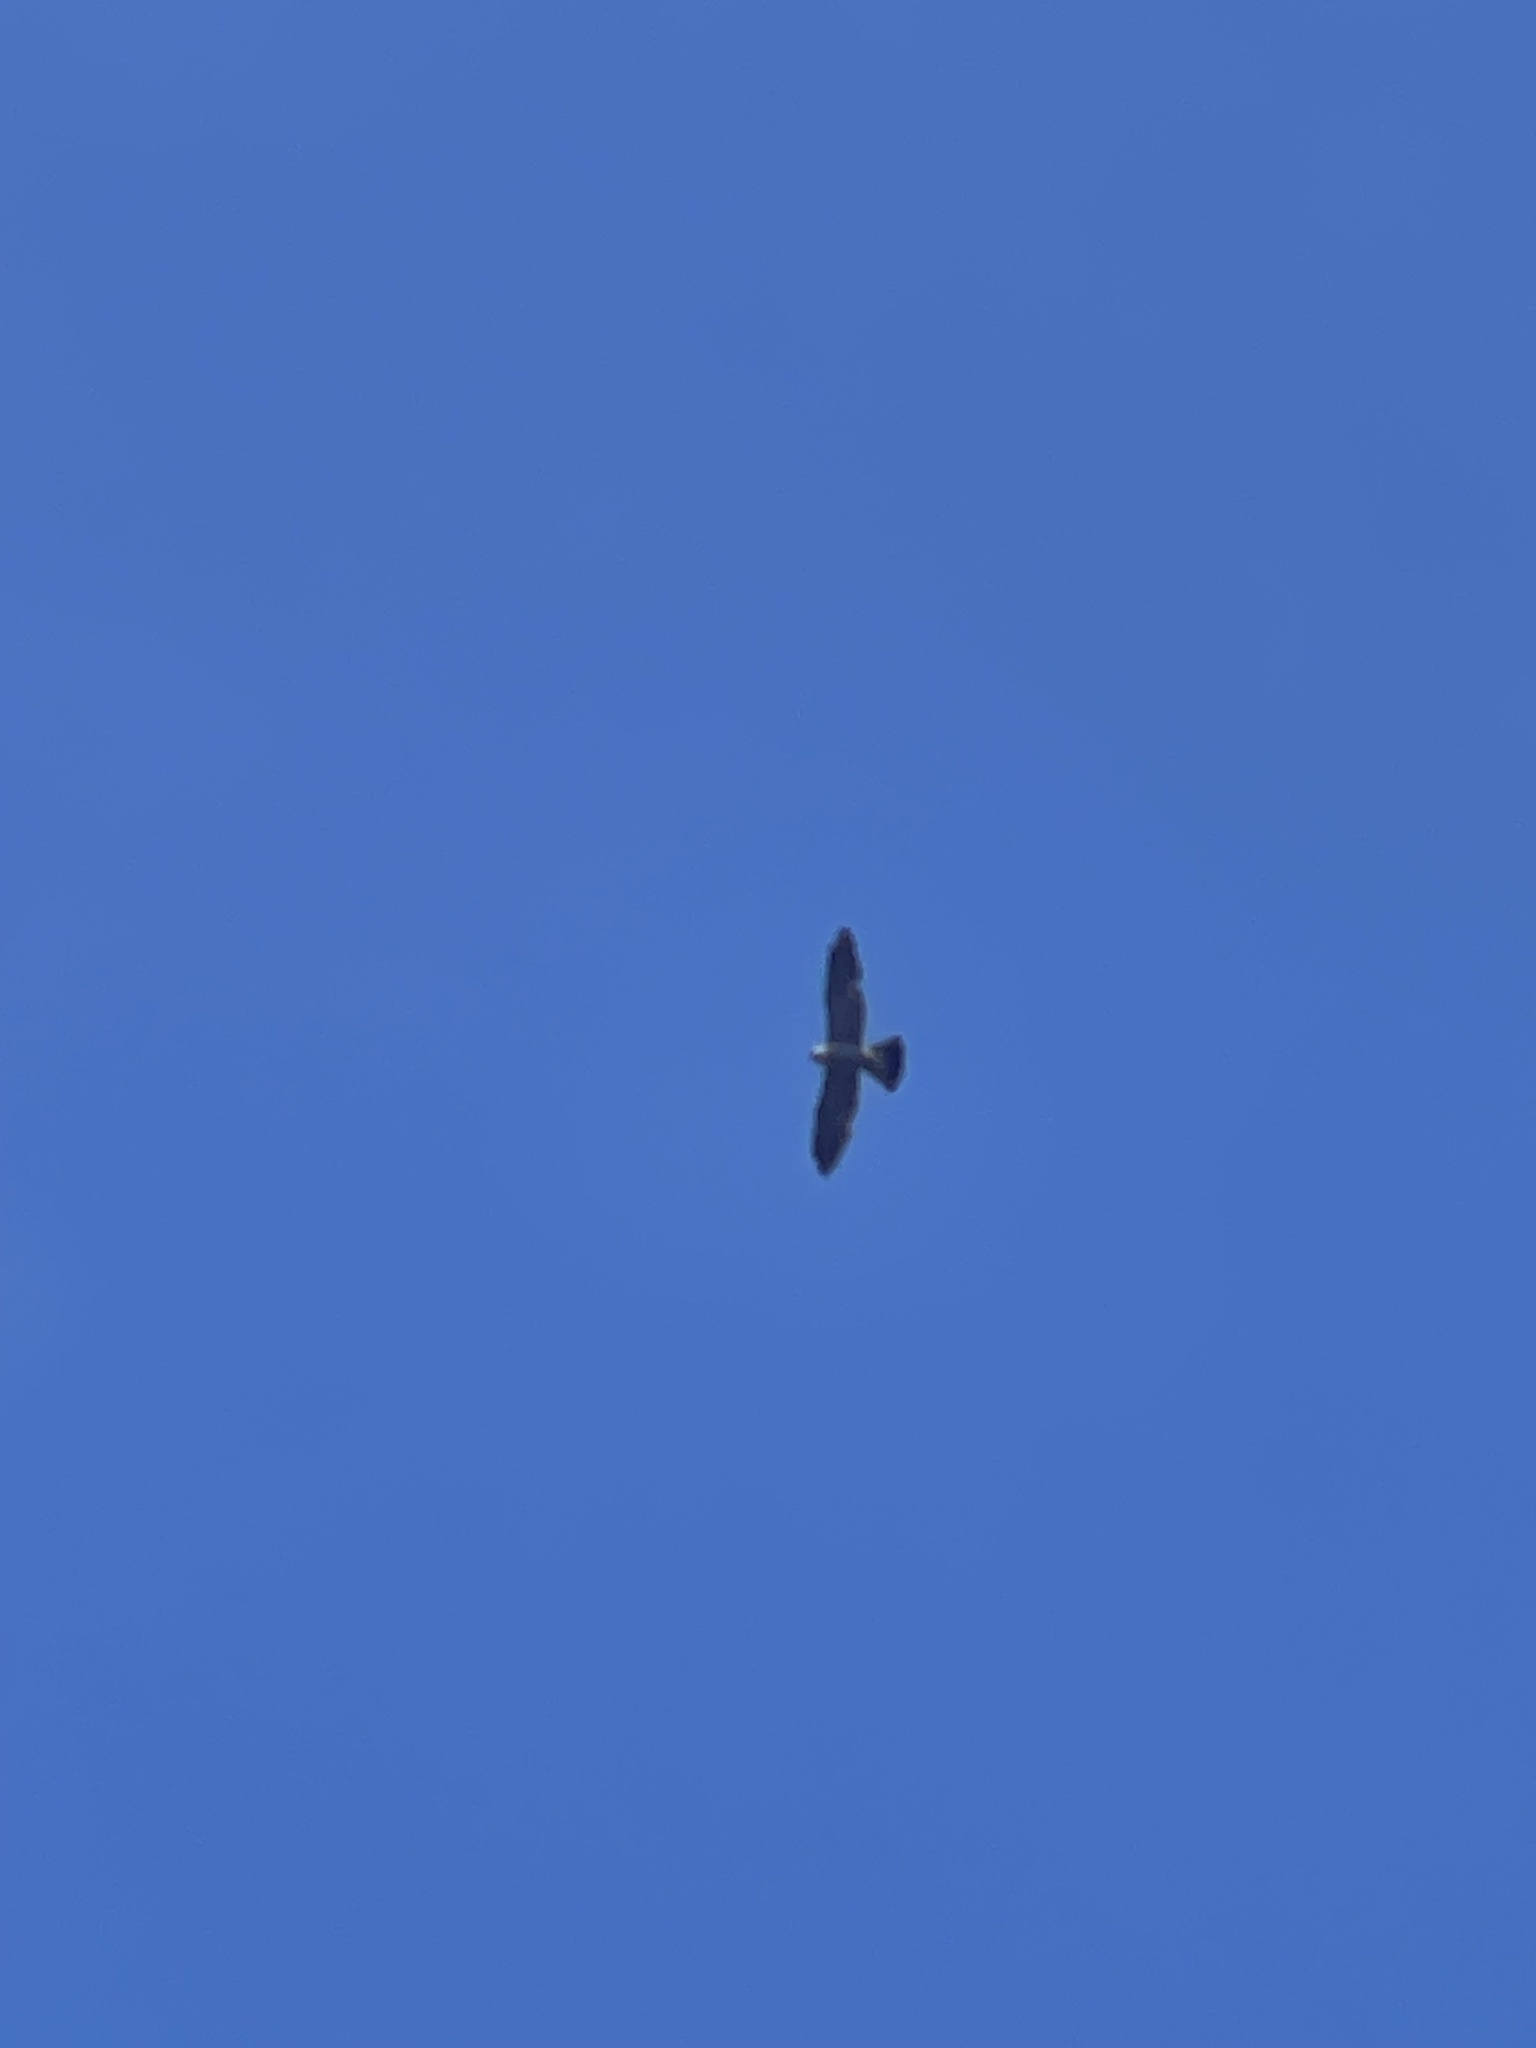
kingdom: Animalia
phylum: Chordata
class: Aves
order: Accipitriformes
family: Accipitridae
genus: Ictinia
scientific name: Ictinia mississippiensis
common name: Mississippi kite
